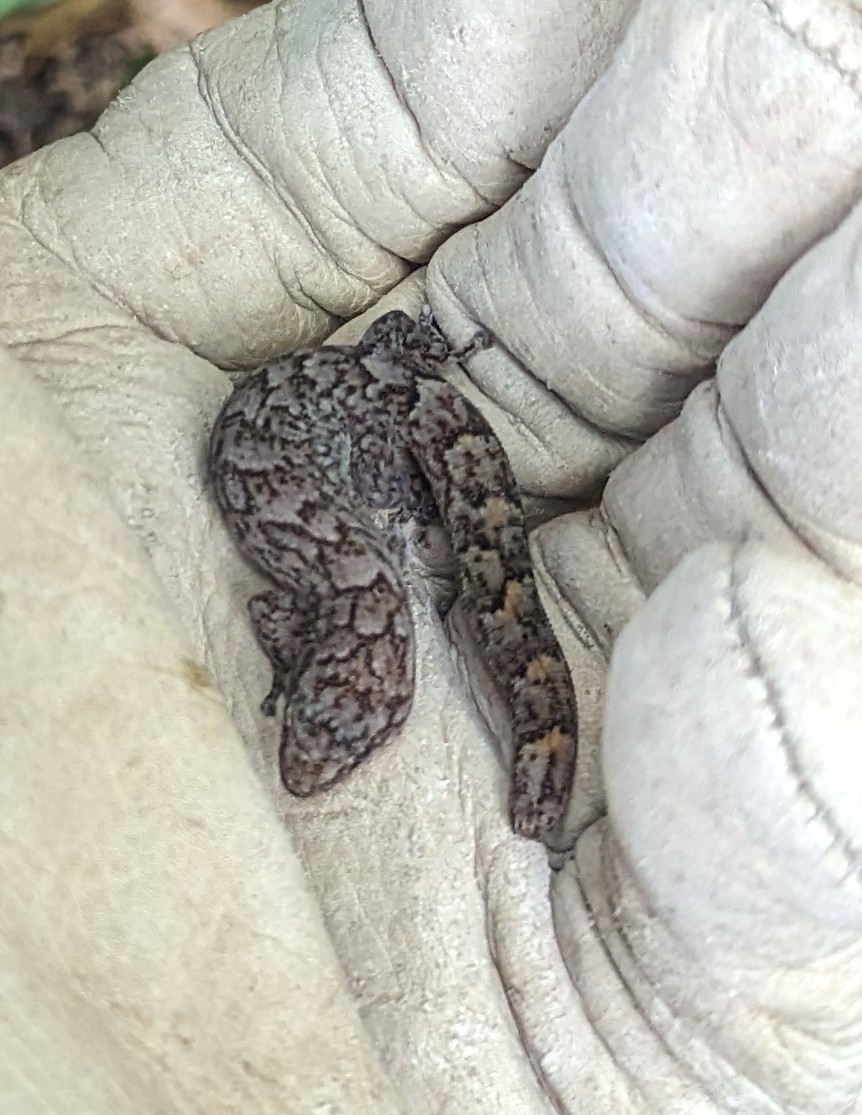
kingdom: Animalia
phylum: Chordata
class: Squamata
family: Gekkonidae
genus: Christinus
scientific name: Christinus marmoratus
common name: Marbled gecko
